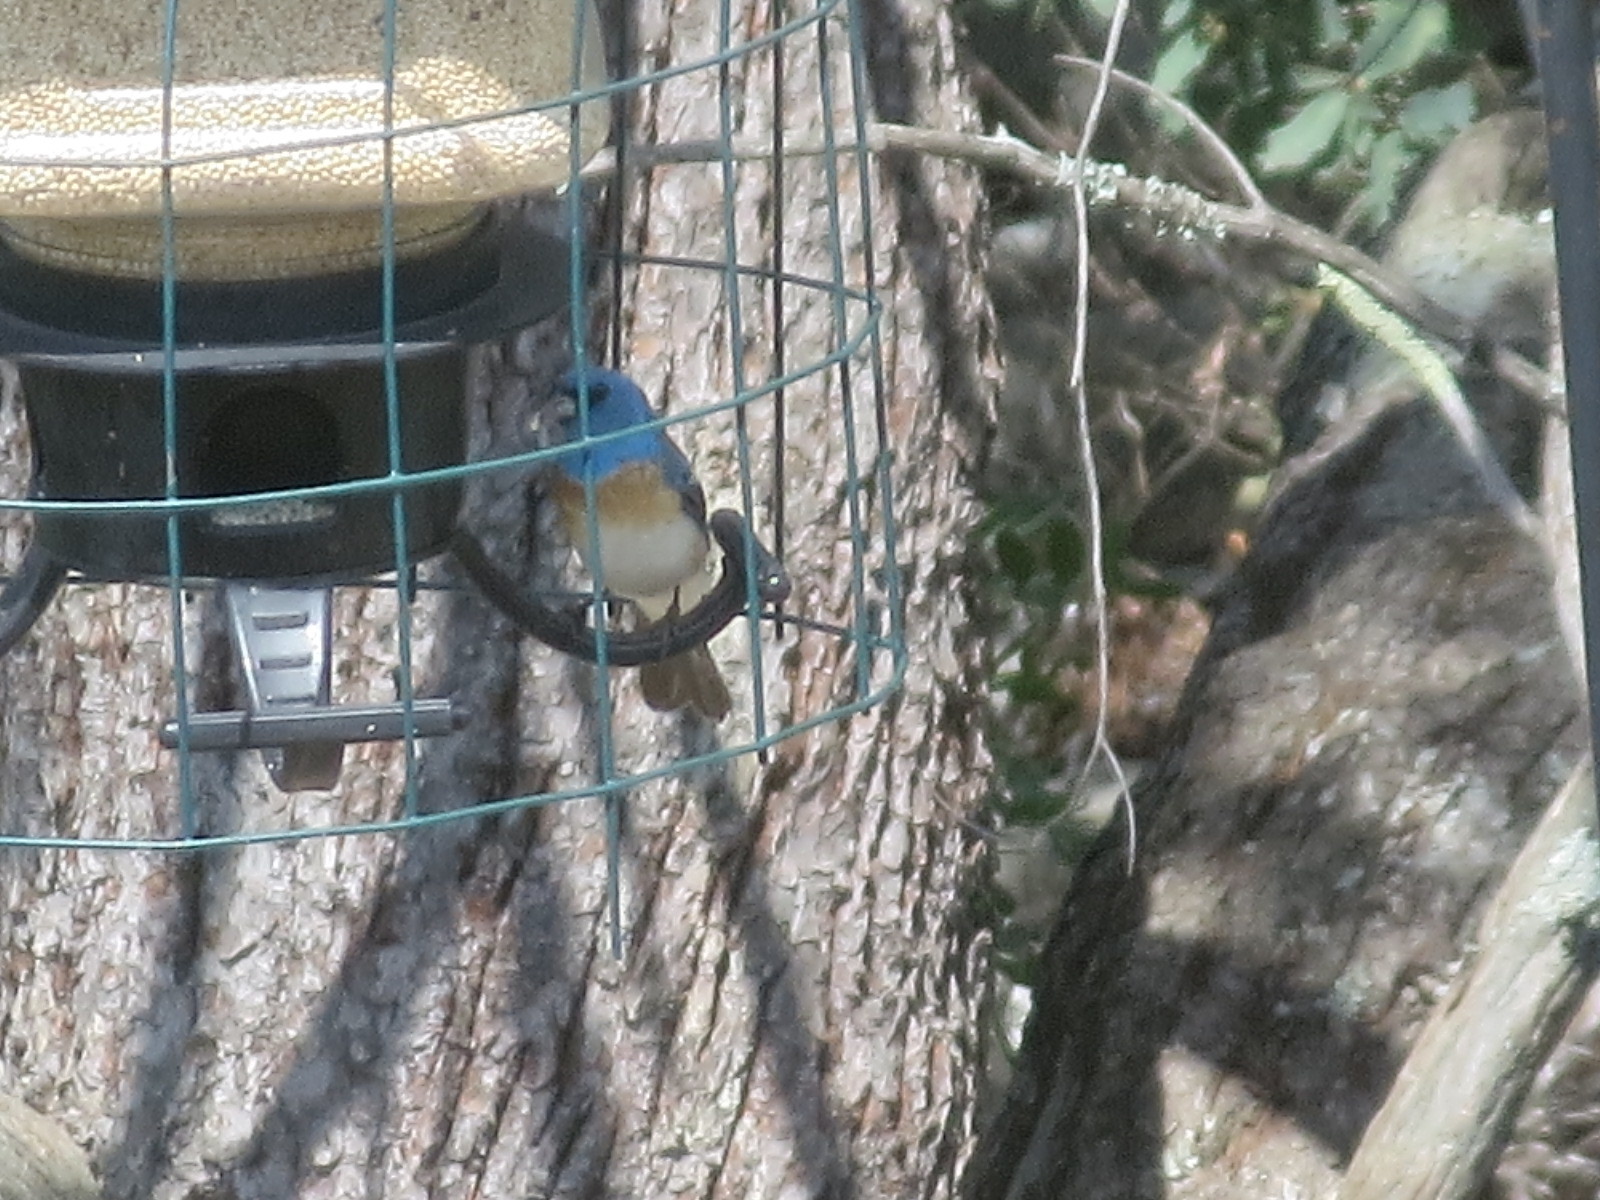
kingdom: Animalia
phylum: Chordata
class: Aves
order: Passeriformes
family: Cardinalidae
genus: Passerina
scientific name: Passerina amoena
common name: Lazuli bunting
